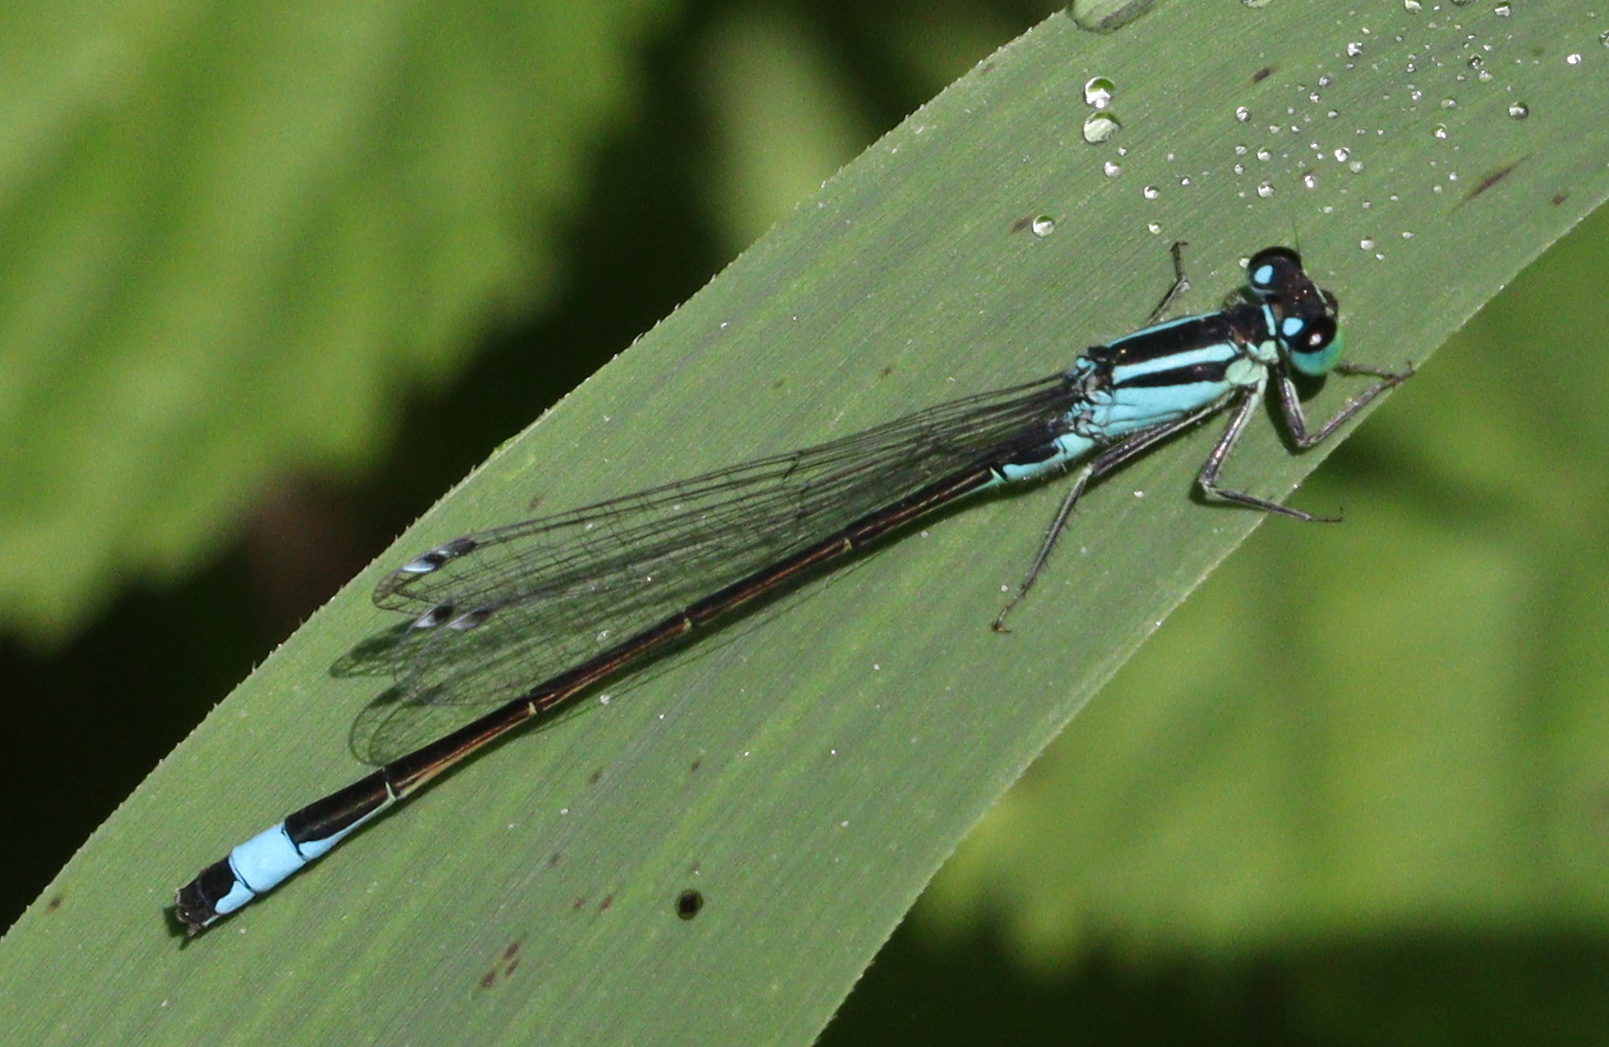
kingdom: Animalia
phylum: Arthropoda
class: Insecta
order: Odonata
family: Coenagrionidae
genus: Ischnura
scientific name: Ischnura elegans
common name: Blue-tailed damselfly
